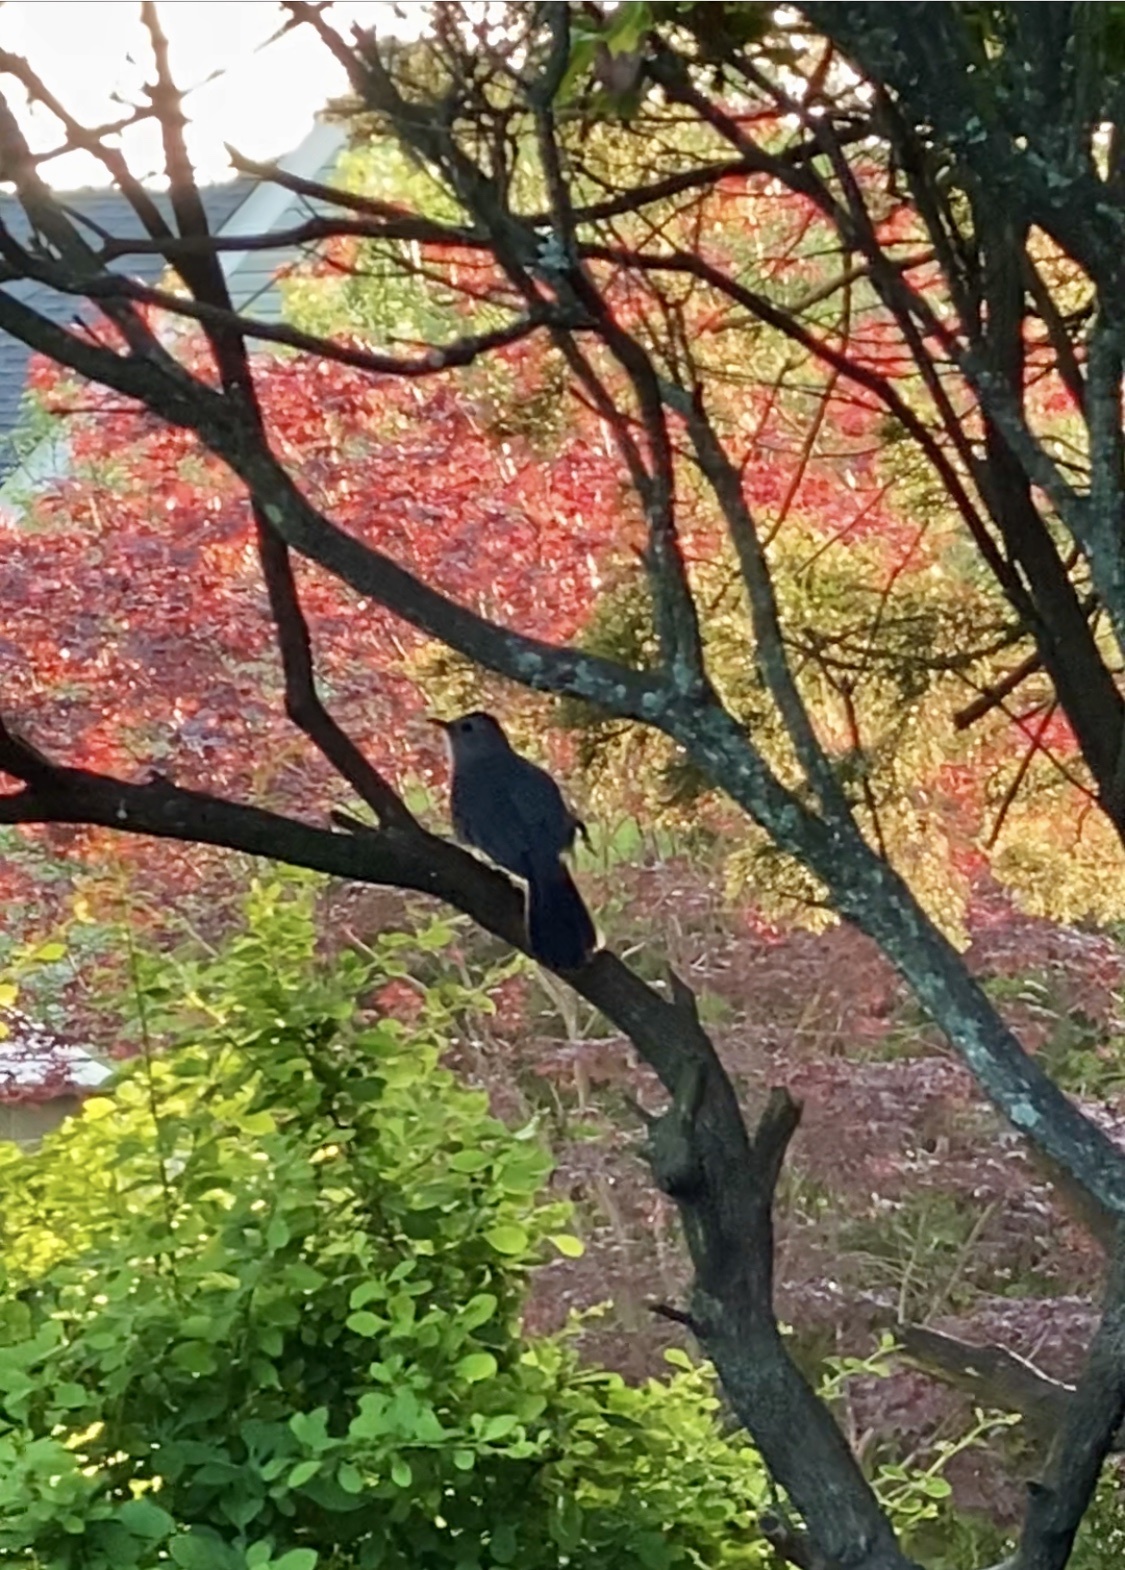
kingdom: Animalia
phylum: Chordata
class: Aves
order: Passeriformes
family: Mimidae
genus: Dumetella
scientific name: Dumetella carolinensis
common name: Gray catbird
